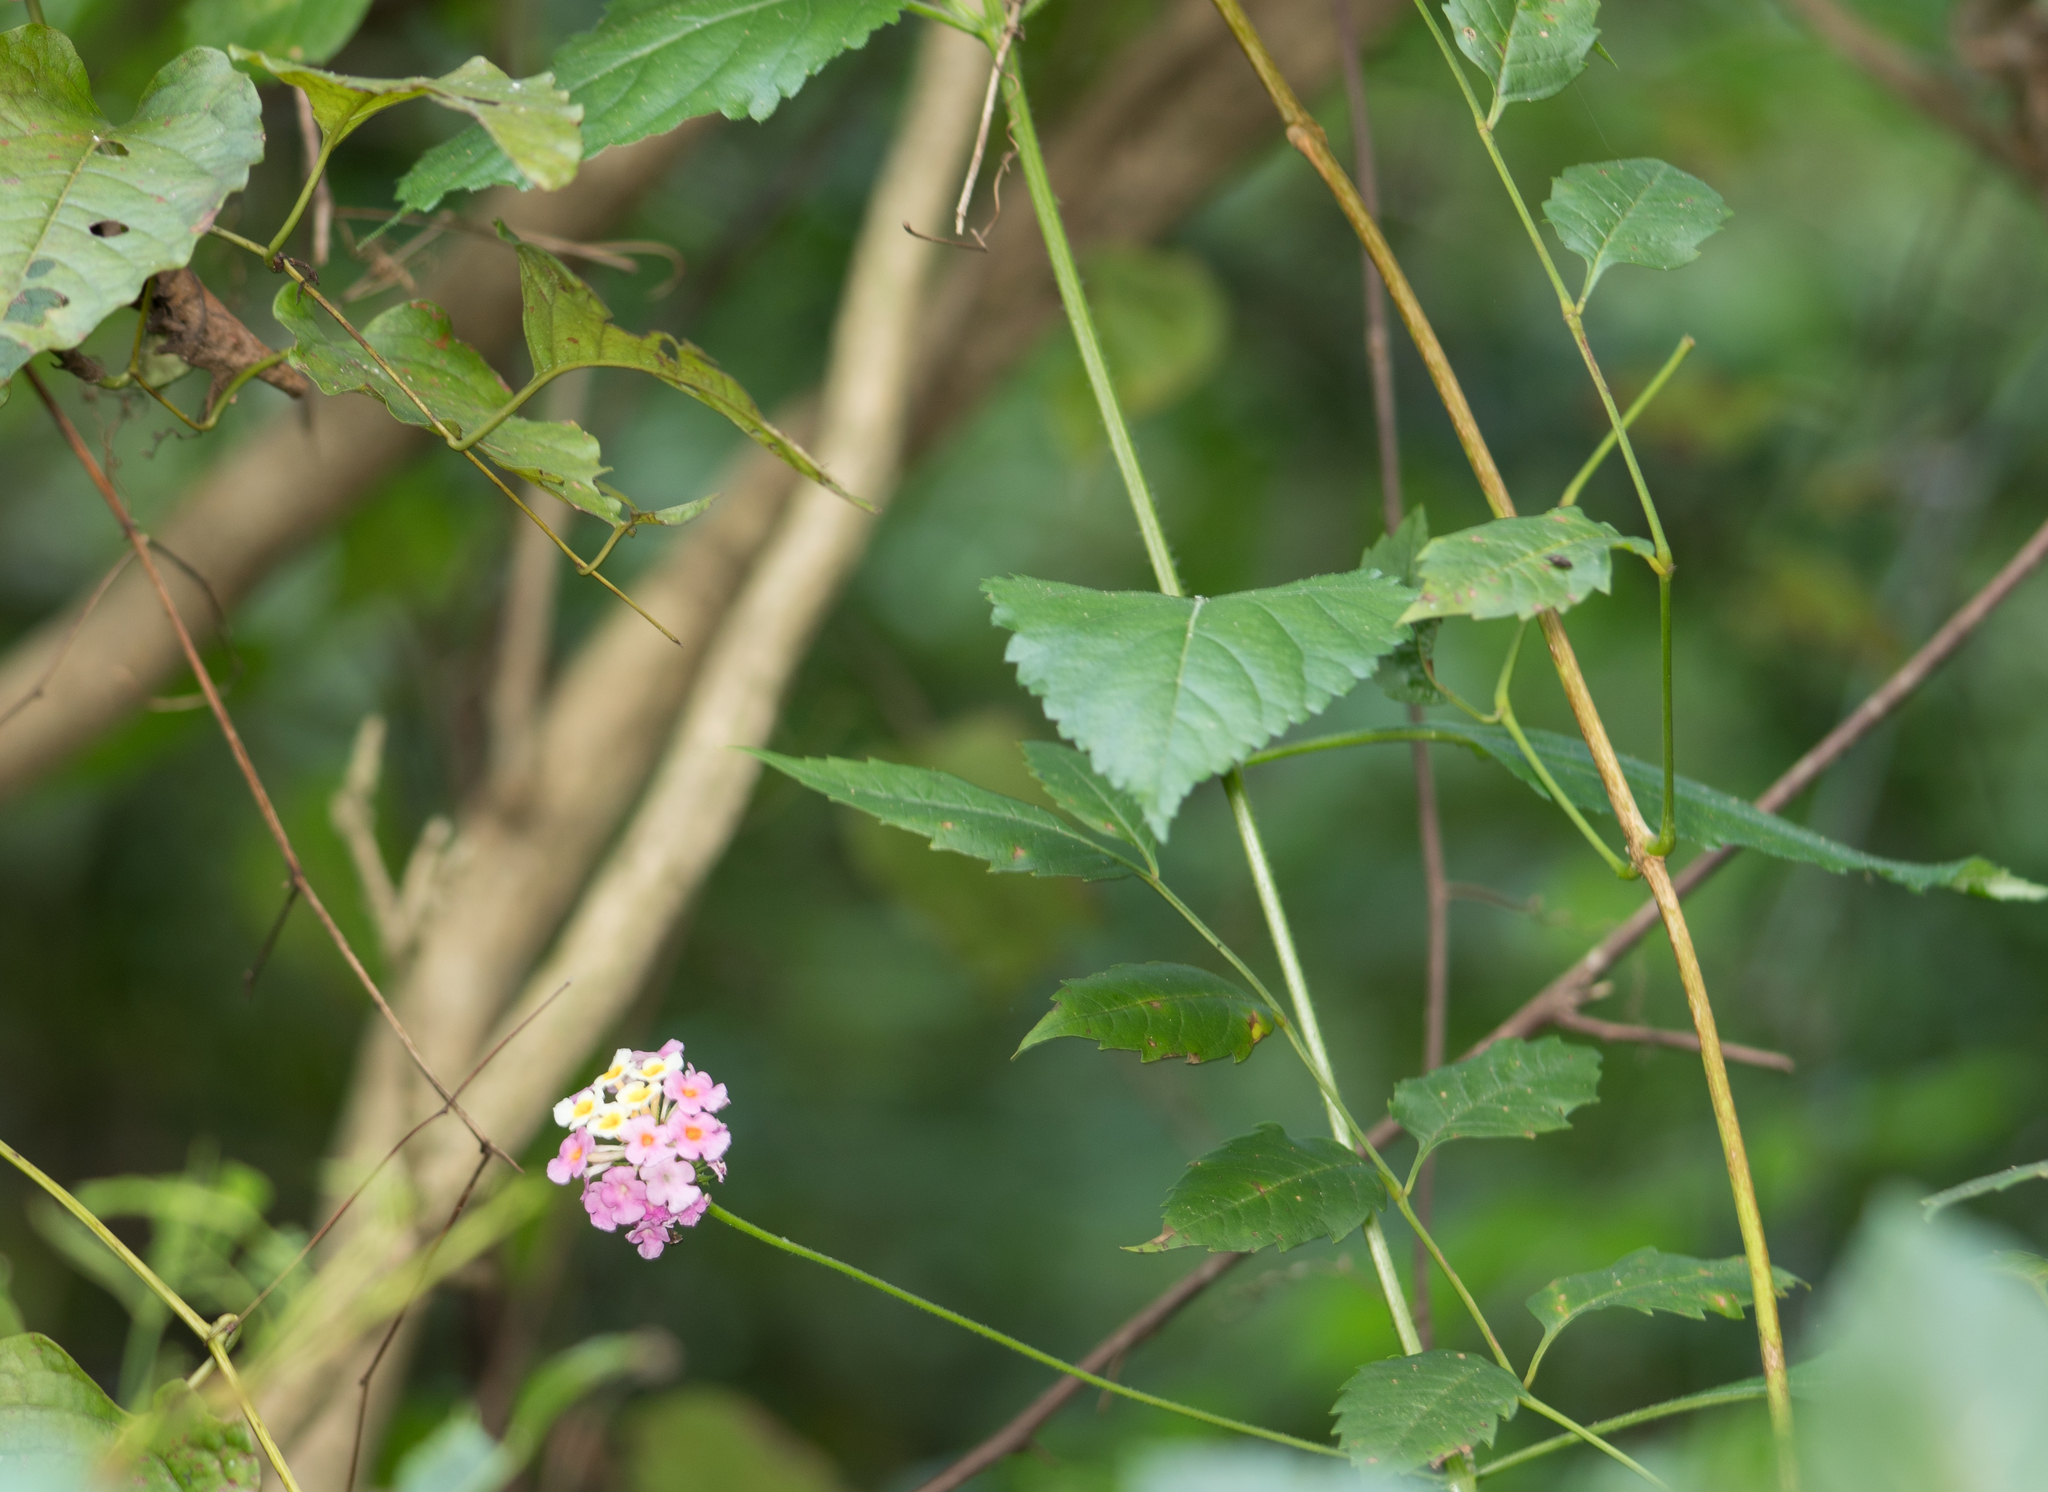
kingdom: Plantae
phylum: Tracheophyta
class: Magnoliopsida
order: Lamiales
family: Verbenaceae
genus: Lantana
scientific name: Lantana strigocamara
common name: Lantana
